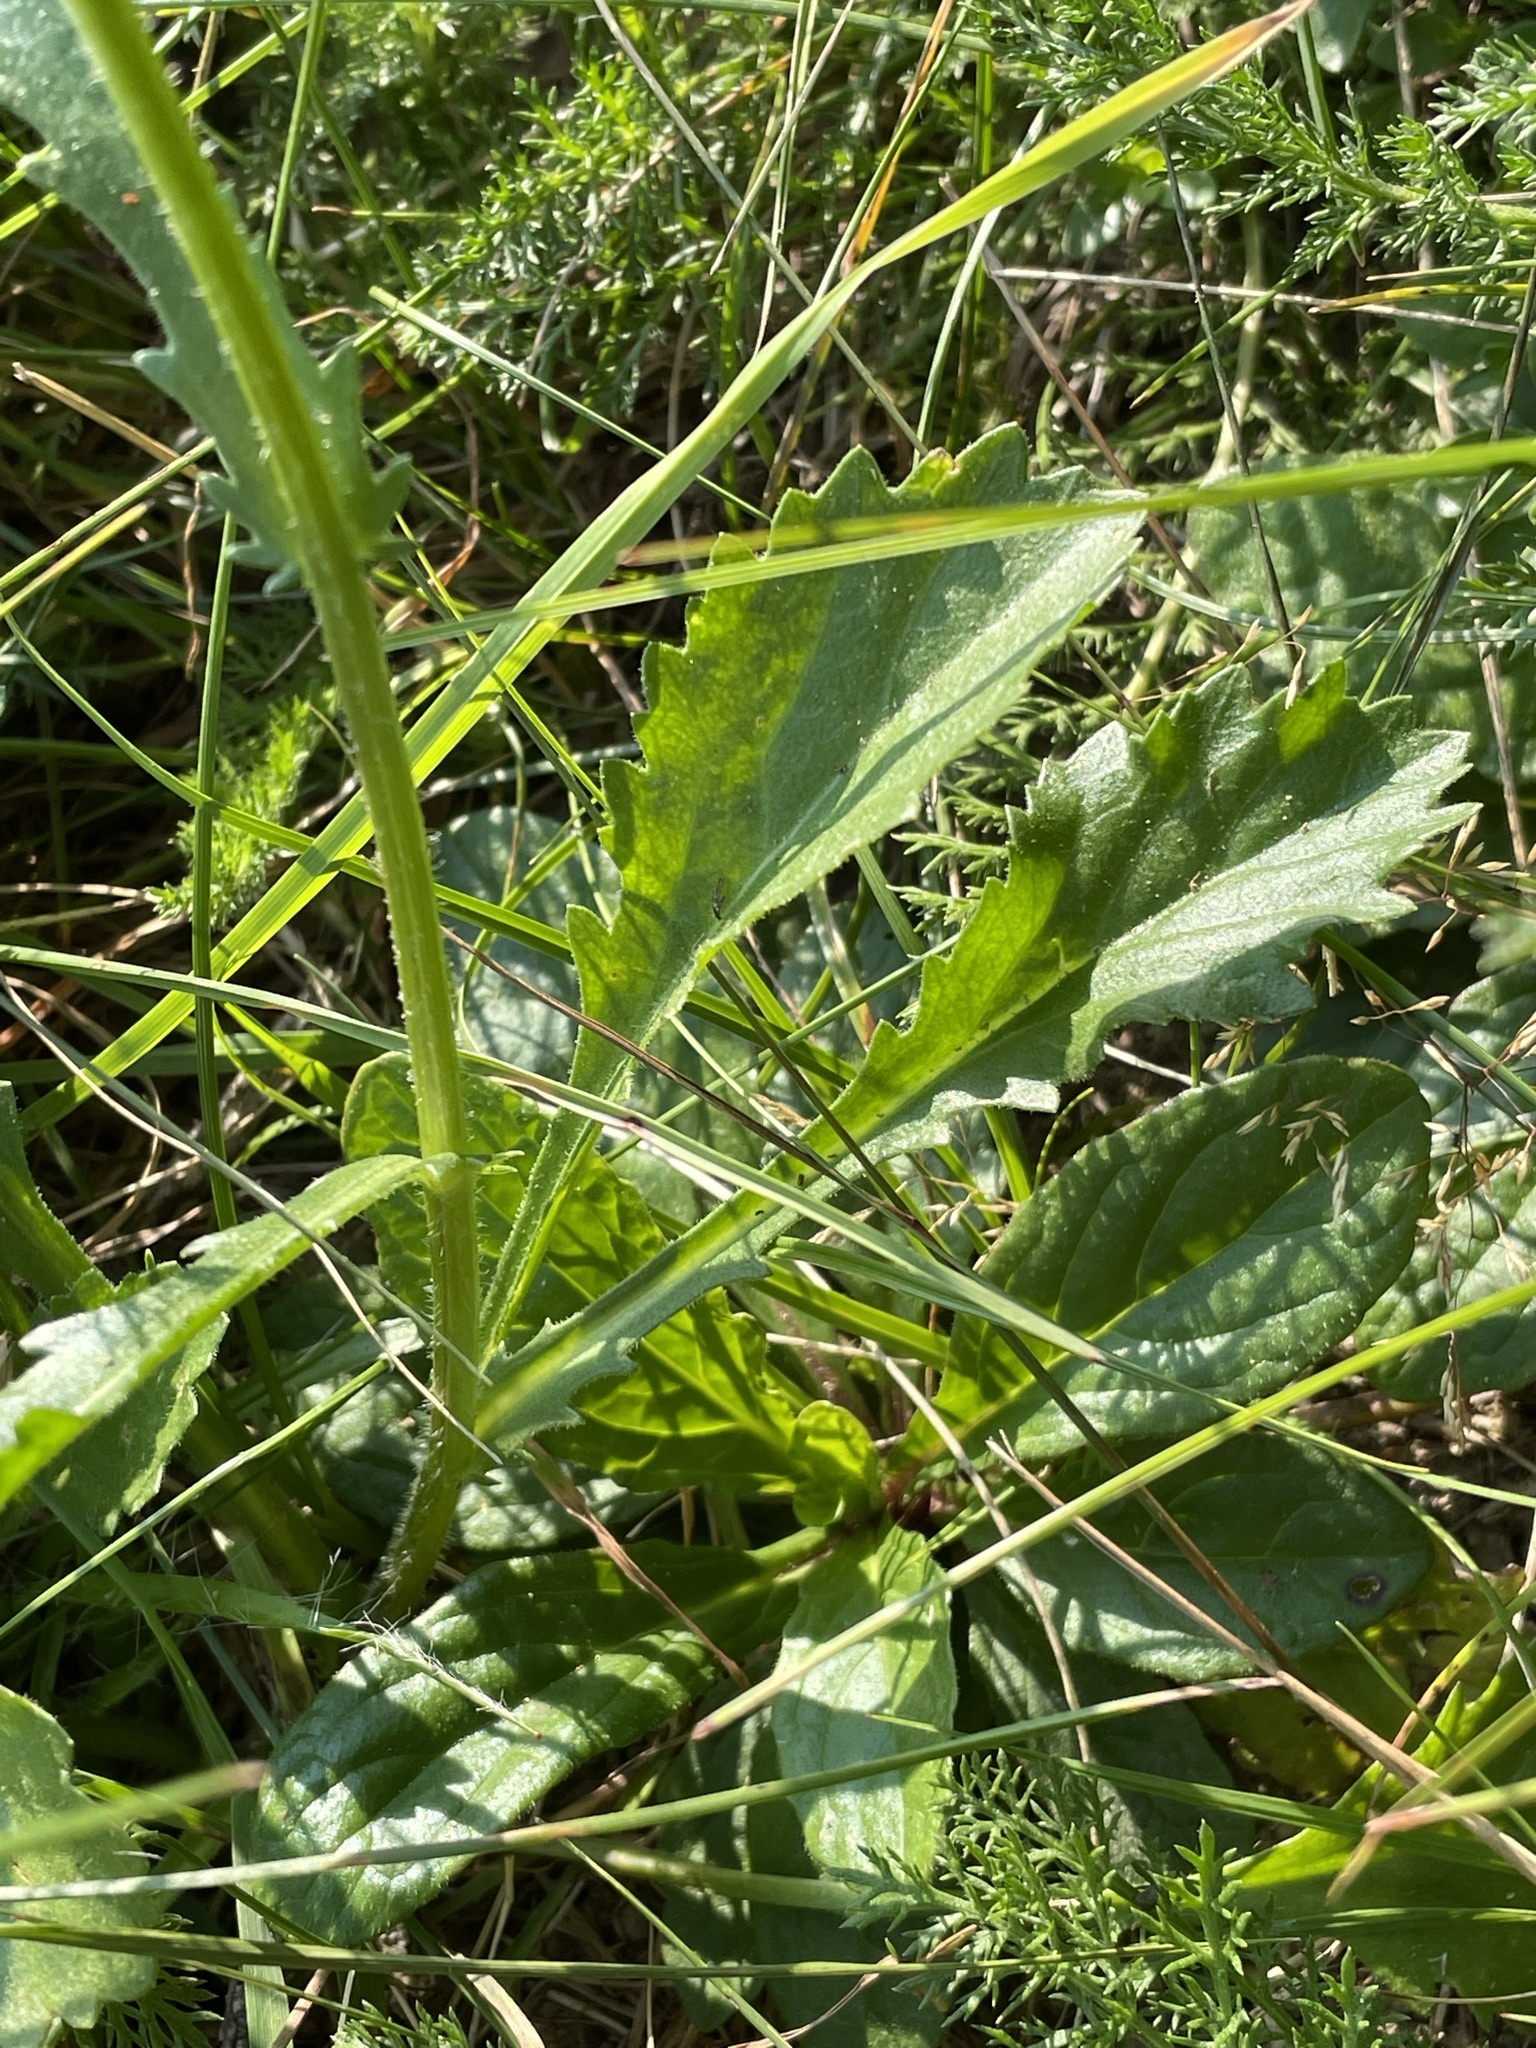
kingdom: Plantae
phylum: Tracheophyta
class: Magnoliopsida
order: Asterales
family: Asteraceae
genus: Leucanthemum
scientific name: Leucanthemum vulgare
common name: Oxeye daisy
